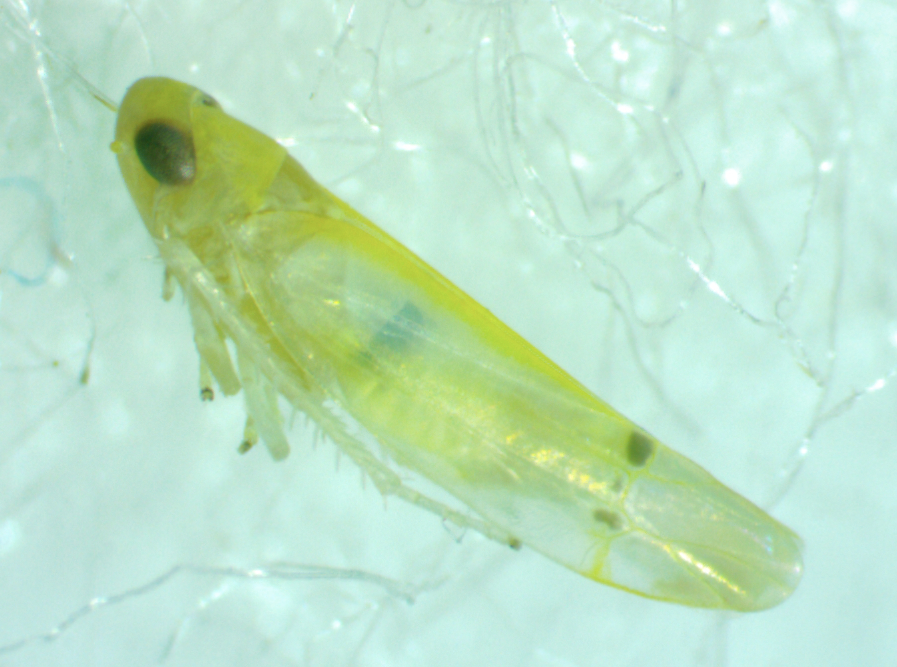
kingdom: Animalia
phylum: Arthropoda
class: Insecta
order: Hemiptera
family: Cicadellidae
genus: Ossiannilssonola
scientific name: Ossiannilssonola berenice
